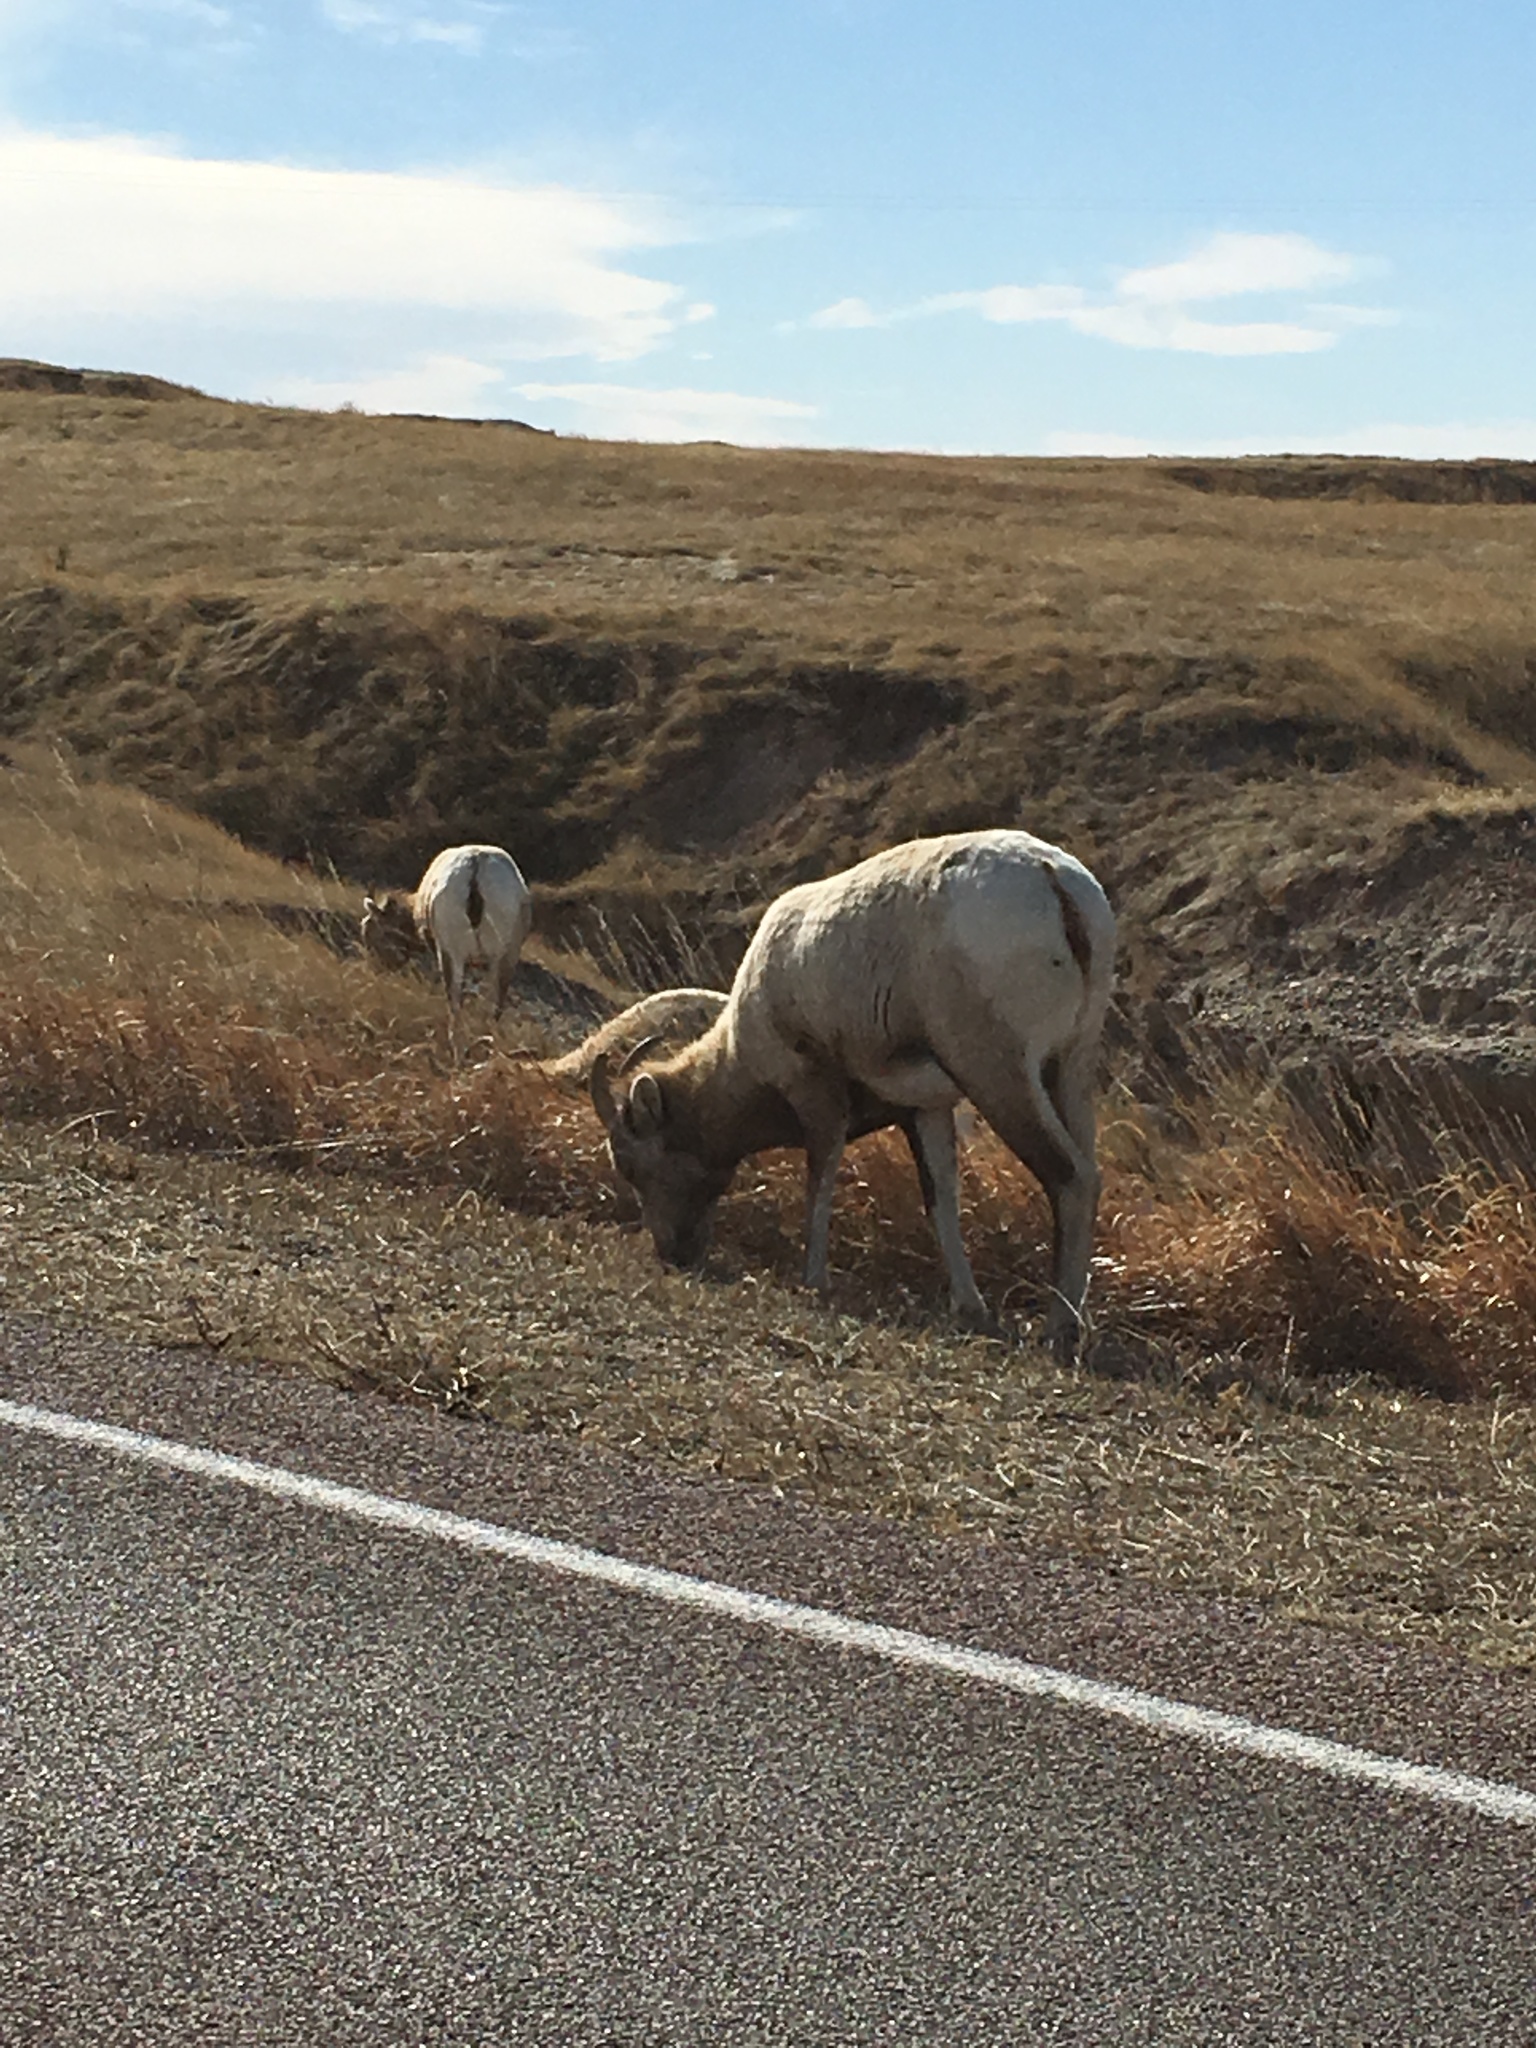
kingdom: Animalia
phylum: Chordata
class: Mammalia
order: Artiodactyla
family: Bovidae
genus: Ovis
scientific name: Ovis canadensis
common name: Bighorn sheep
